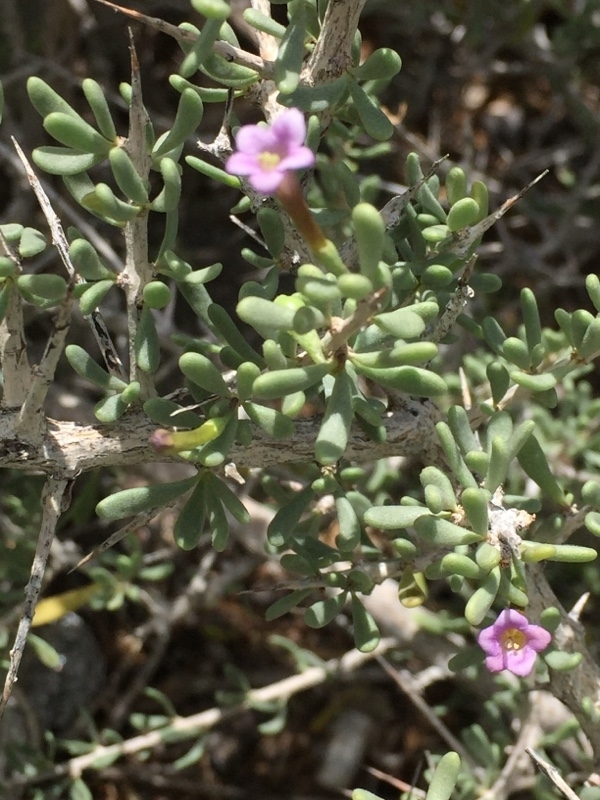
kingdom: Plantae
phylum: Tracheophyta
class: Magnoliopsida
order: Solanales
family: Solanaceae
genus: Lycium
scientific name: Lycium intricatum
